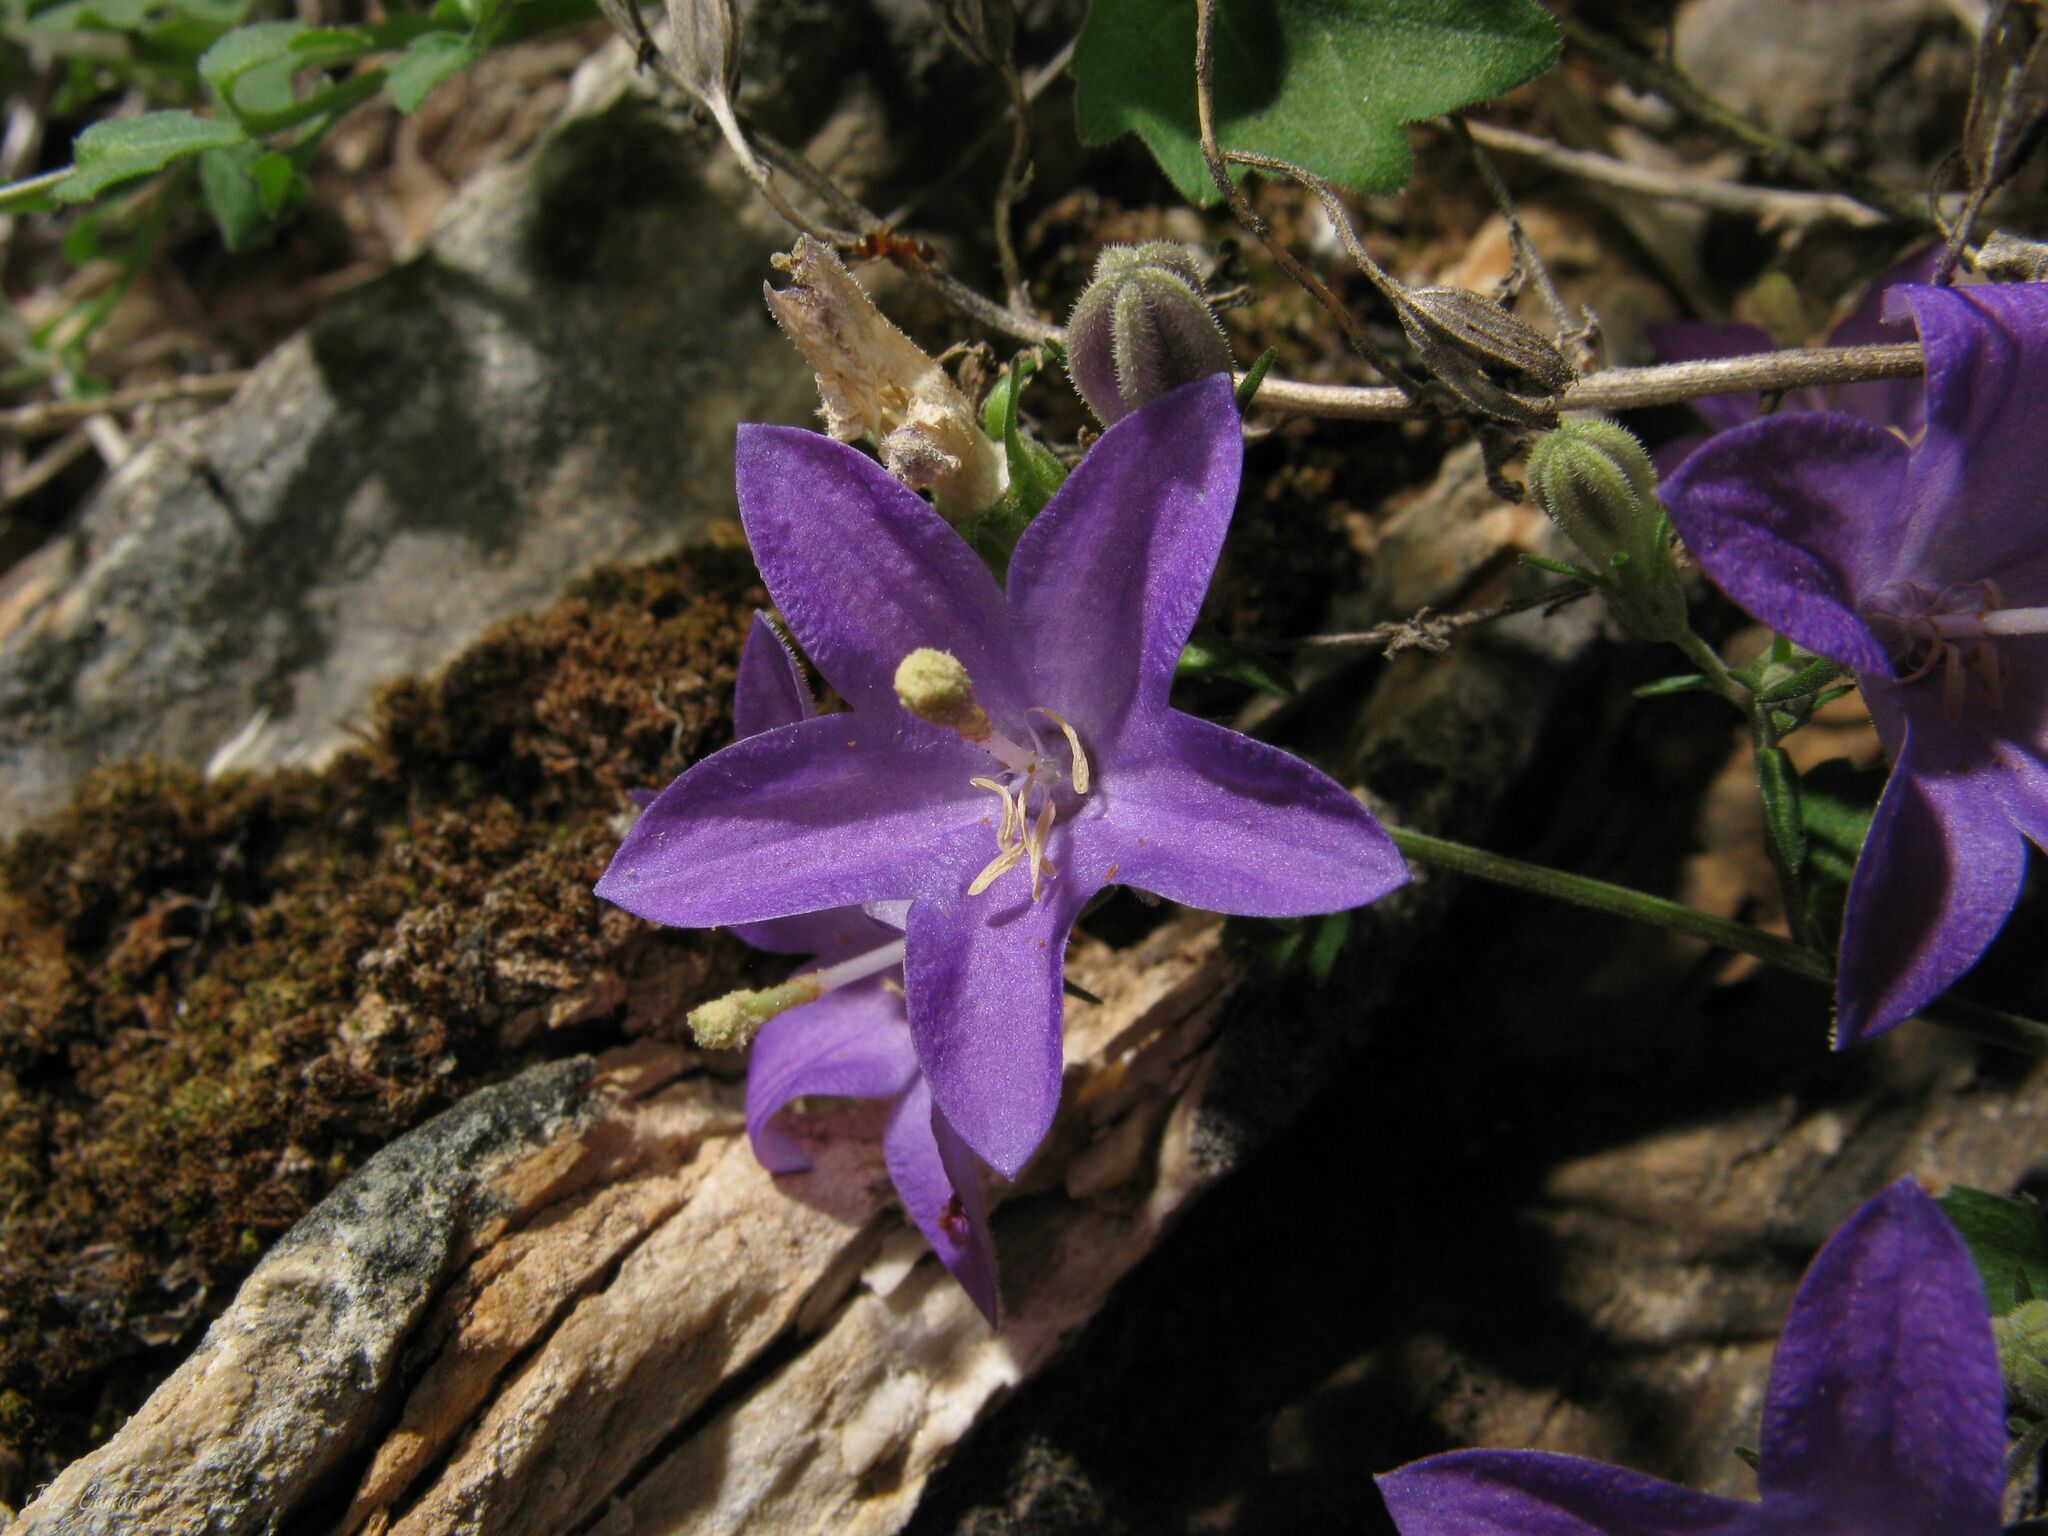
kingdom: Plantae
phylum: Tracheophyta
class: Magnoliopsida
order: Asterales
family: Campanulaceae
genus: Campanula
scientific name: Campanula arvatica
